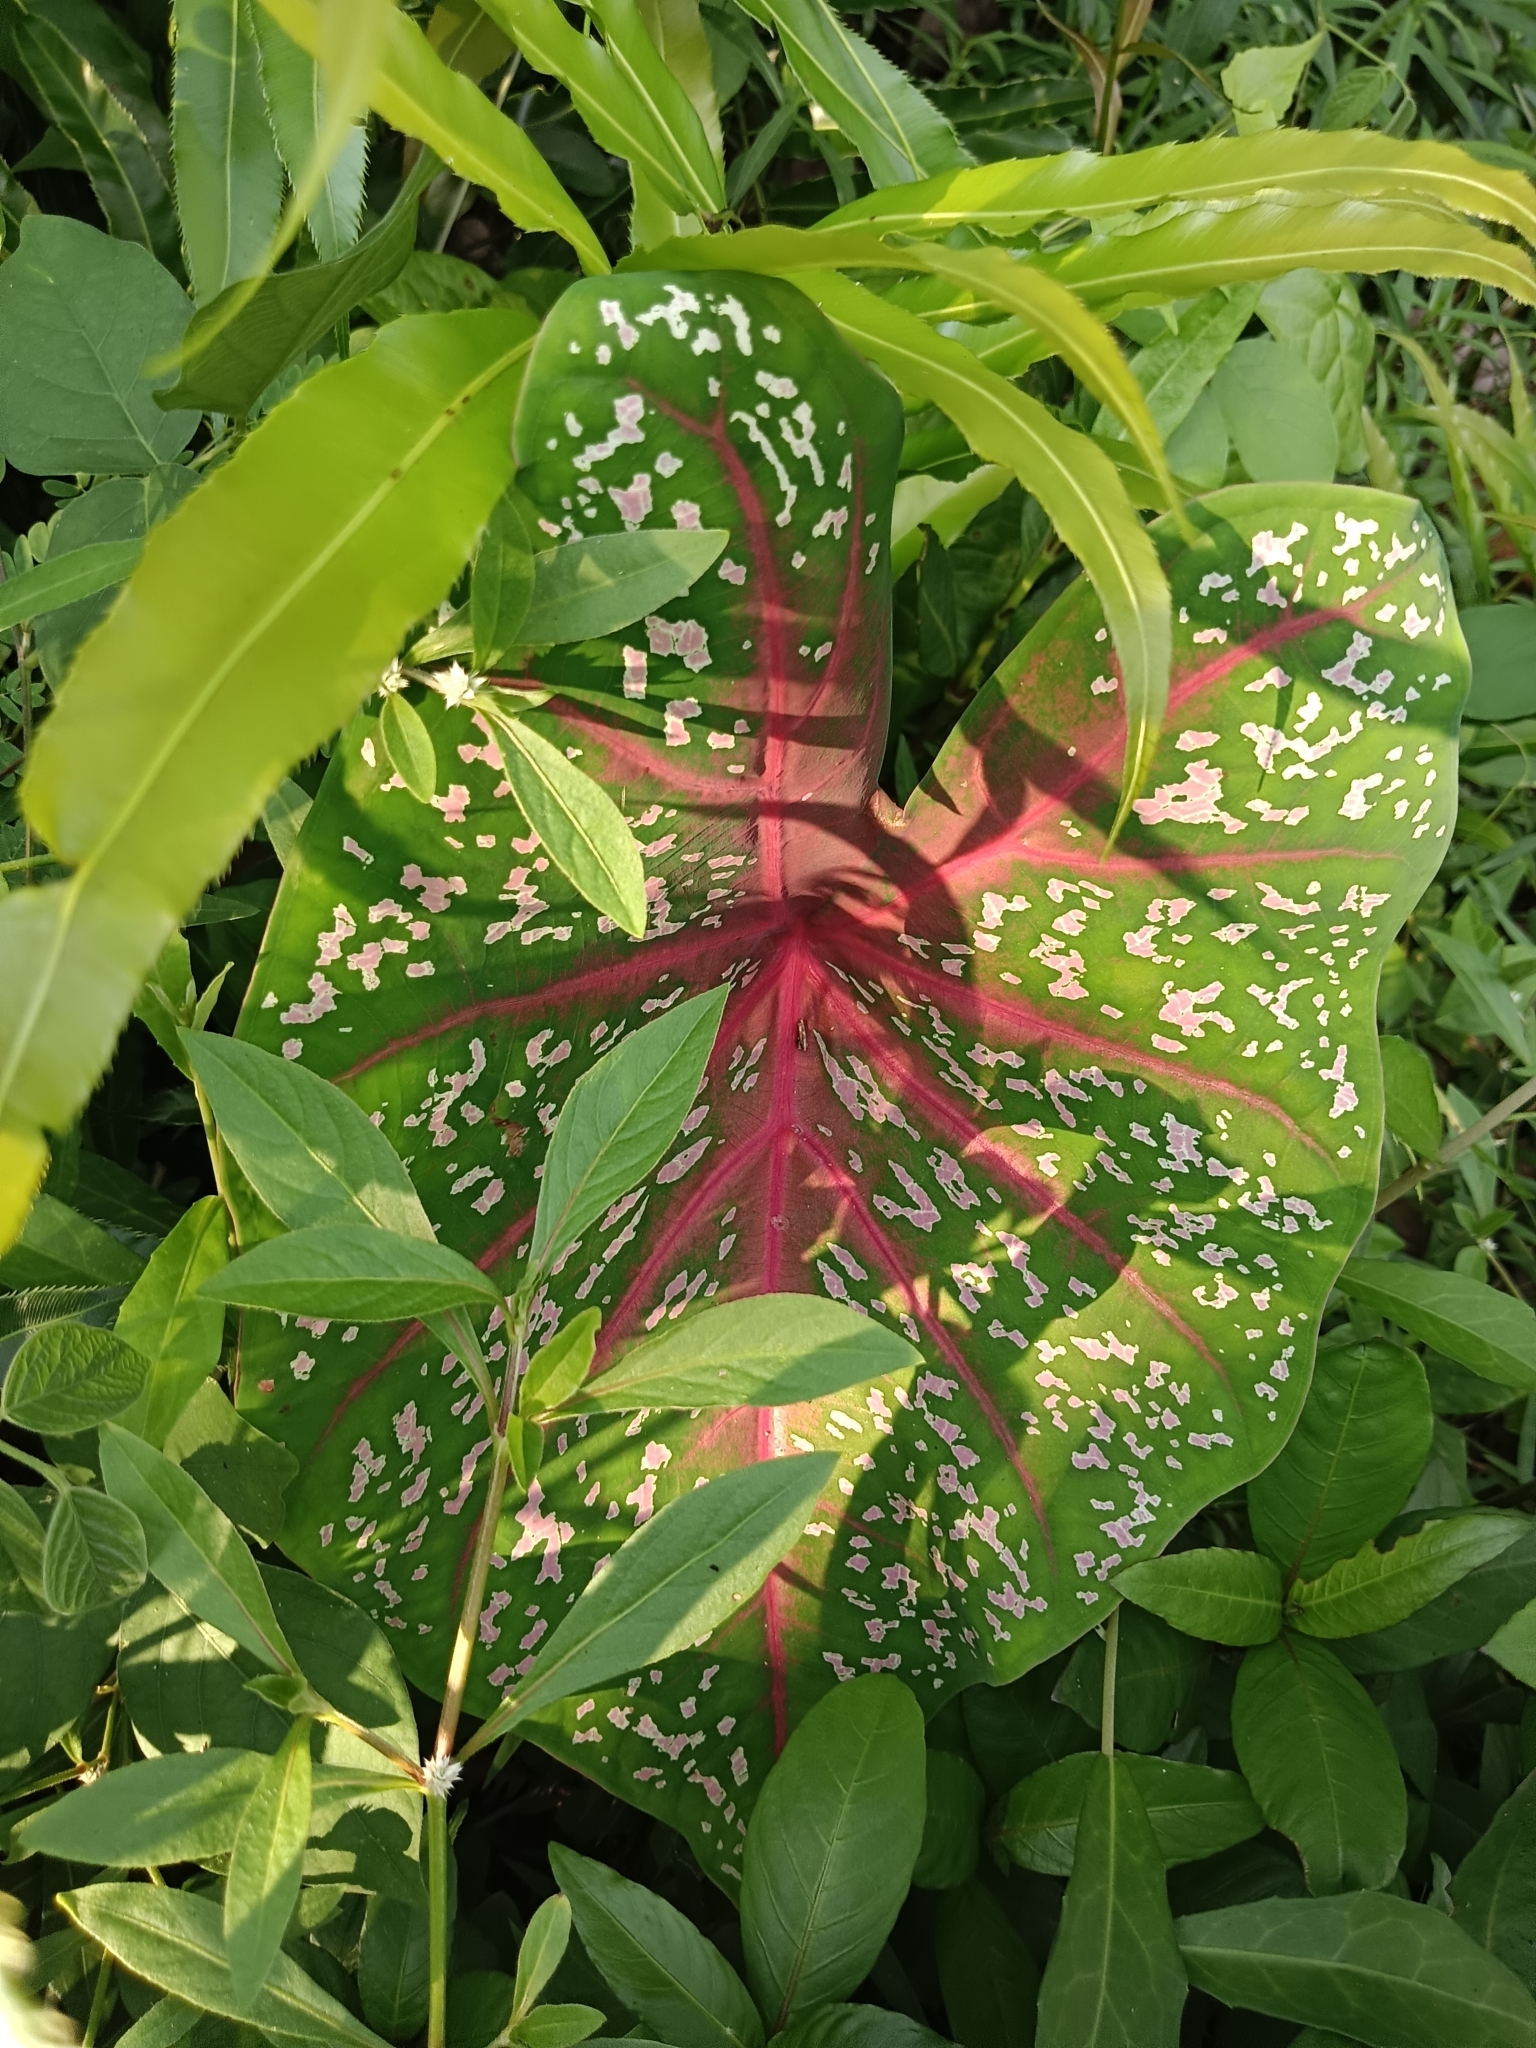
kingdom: Plantae
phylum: Tracheophyta
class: Liliopsida
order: Alismatales
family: Araceae
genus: Caladium
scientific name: Caladium bicolor
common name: Artist's pallet
